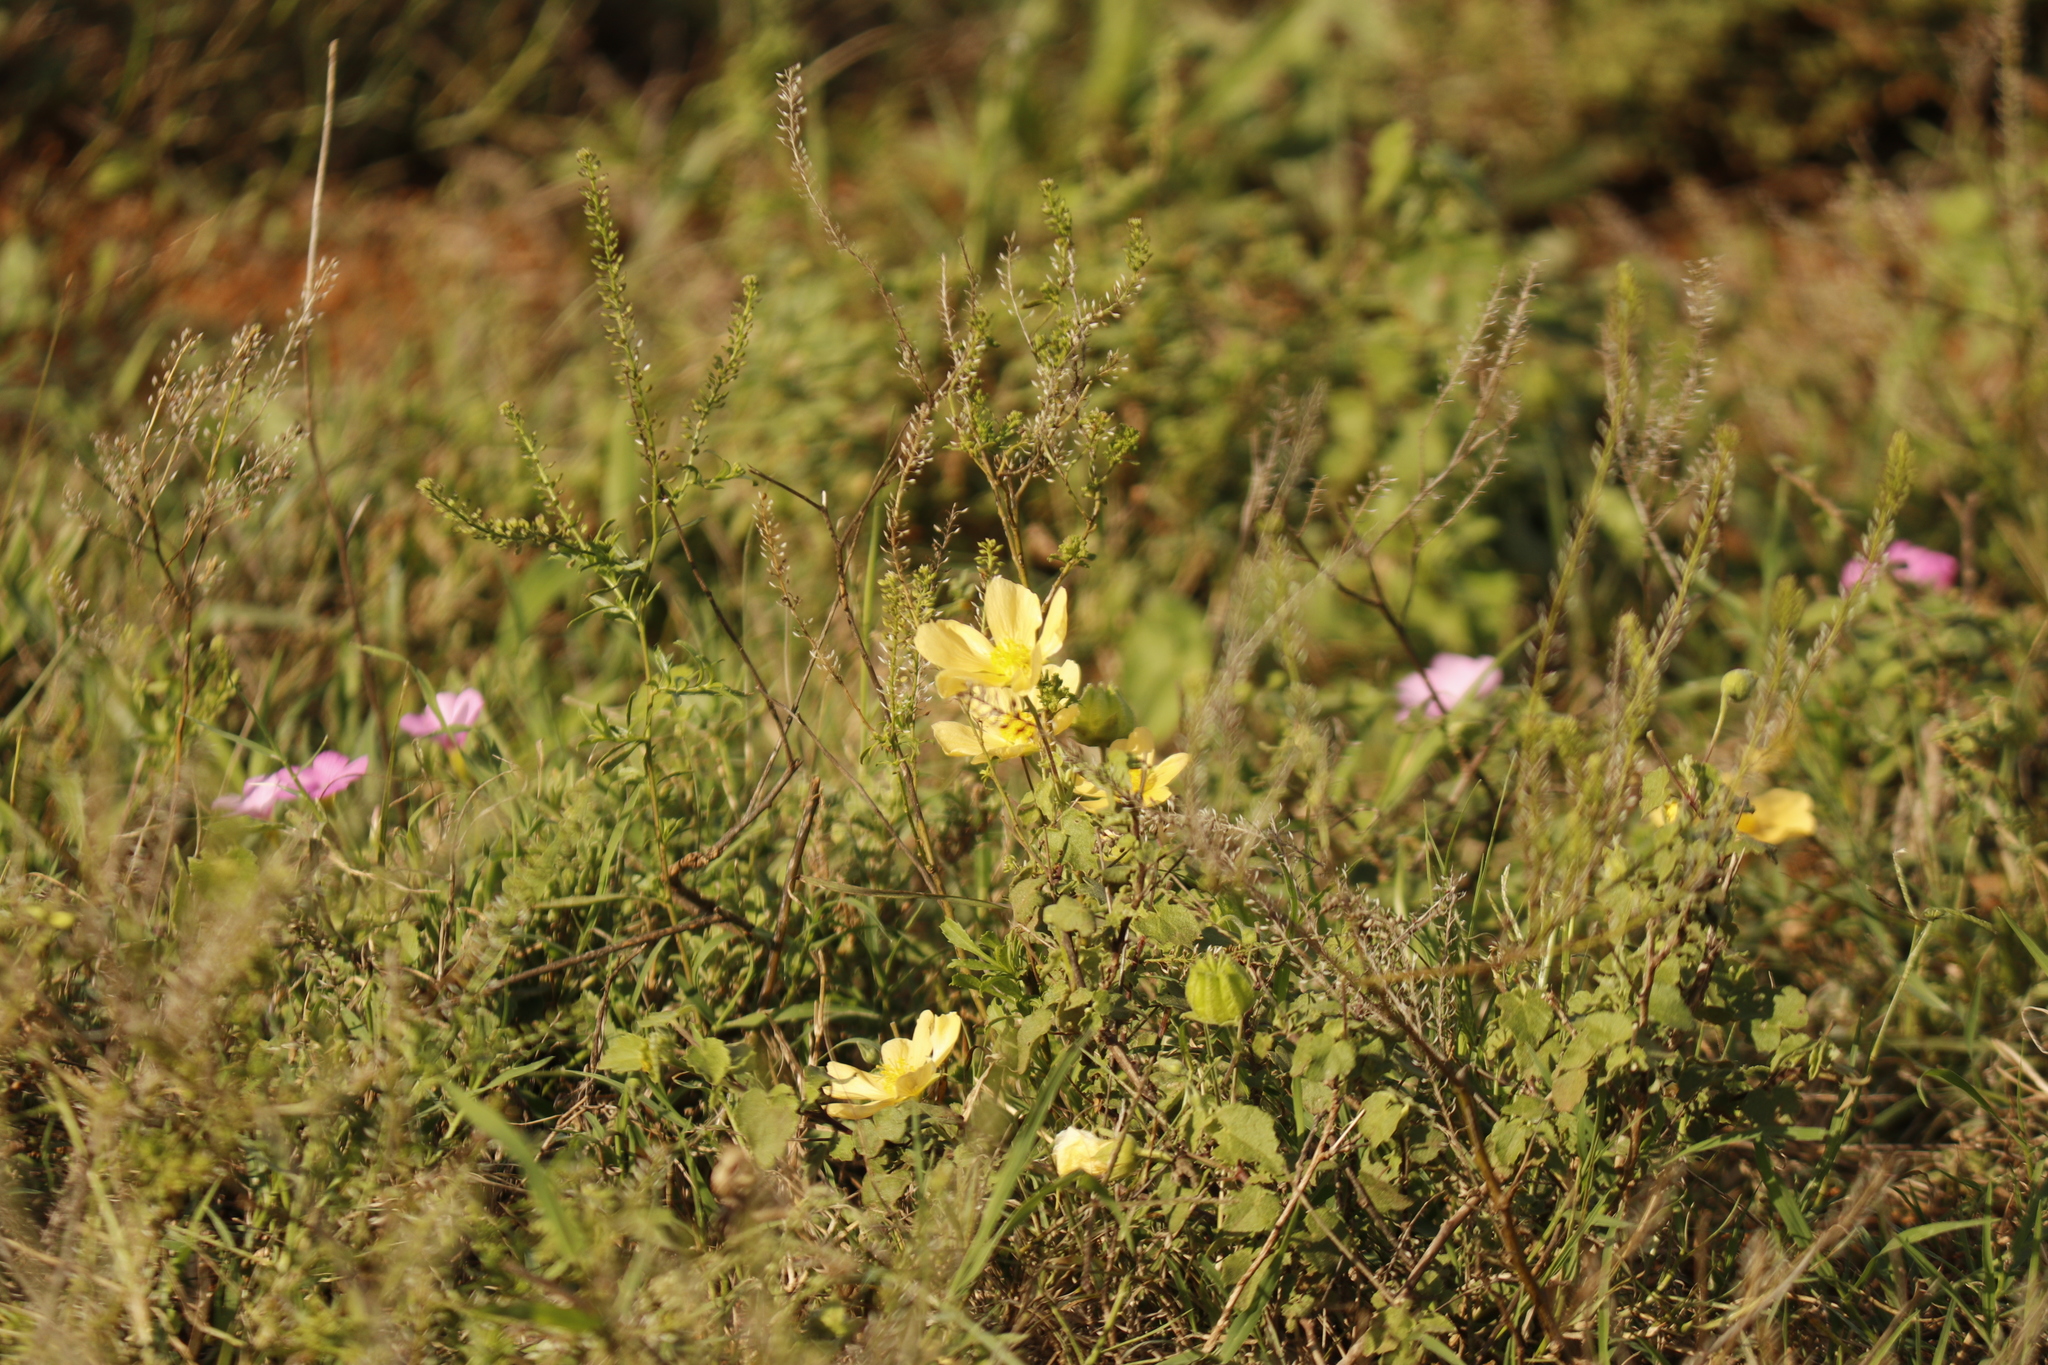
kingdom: Plantae
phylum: Tracheophyta
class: Magnoliopsida
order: Malvales
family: Malvaceae
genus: Abutilon
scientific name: Abutilon sonneratianum
